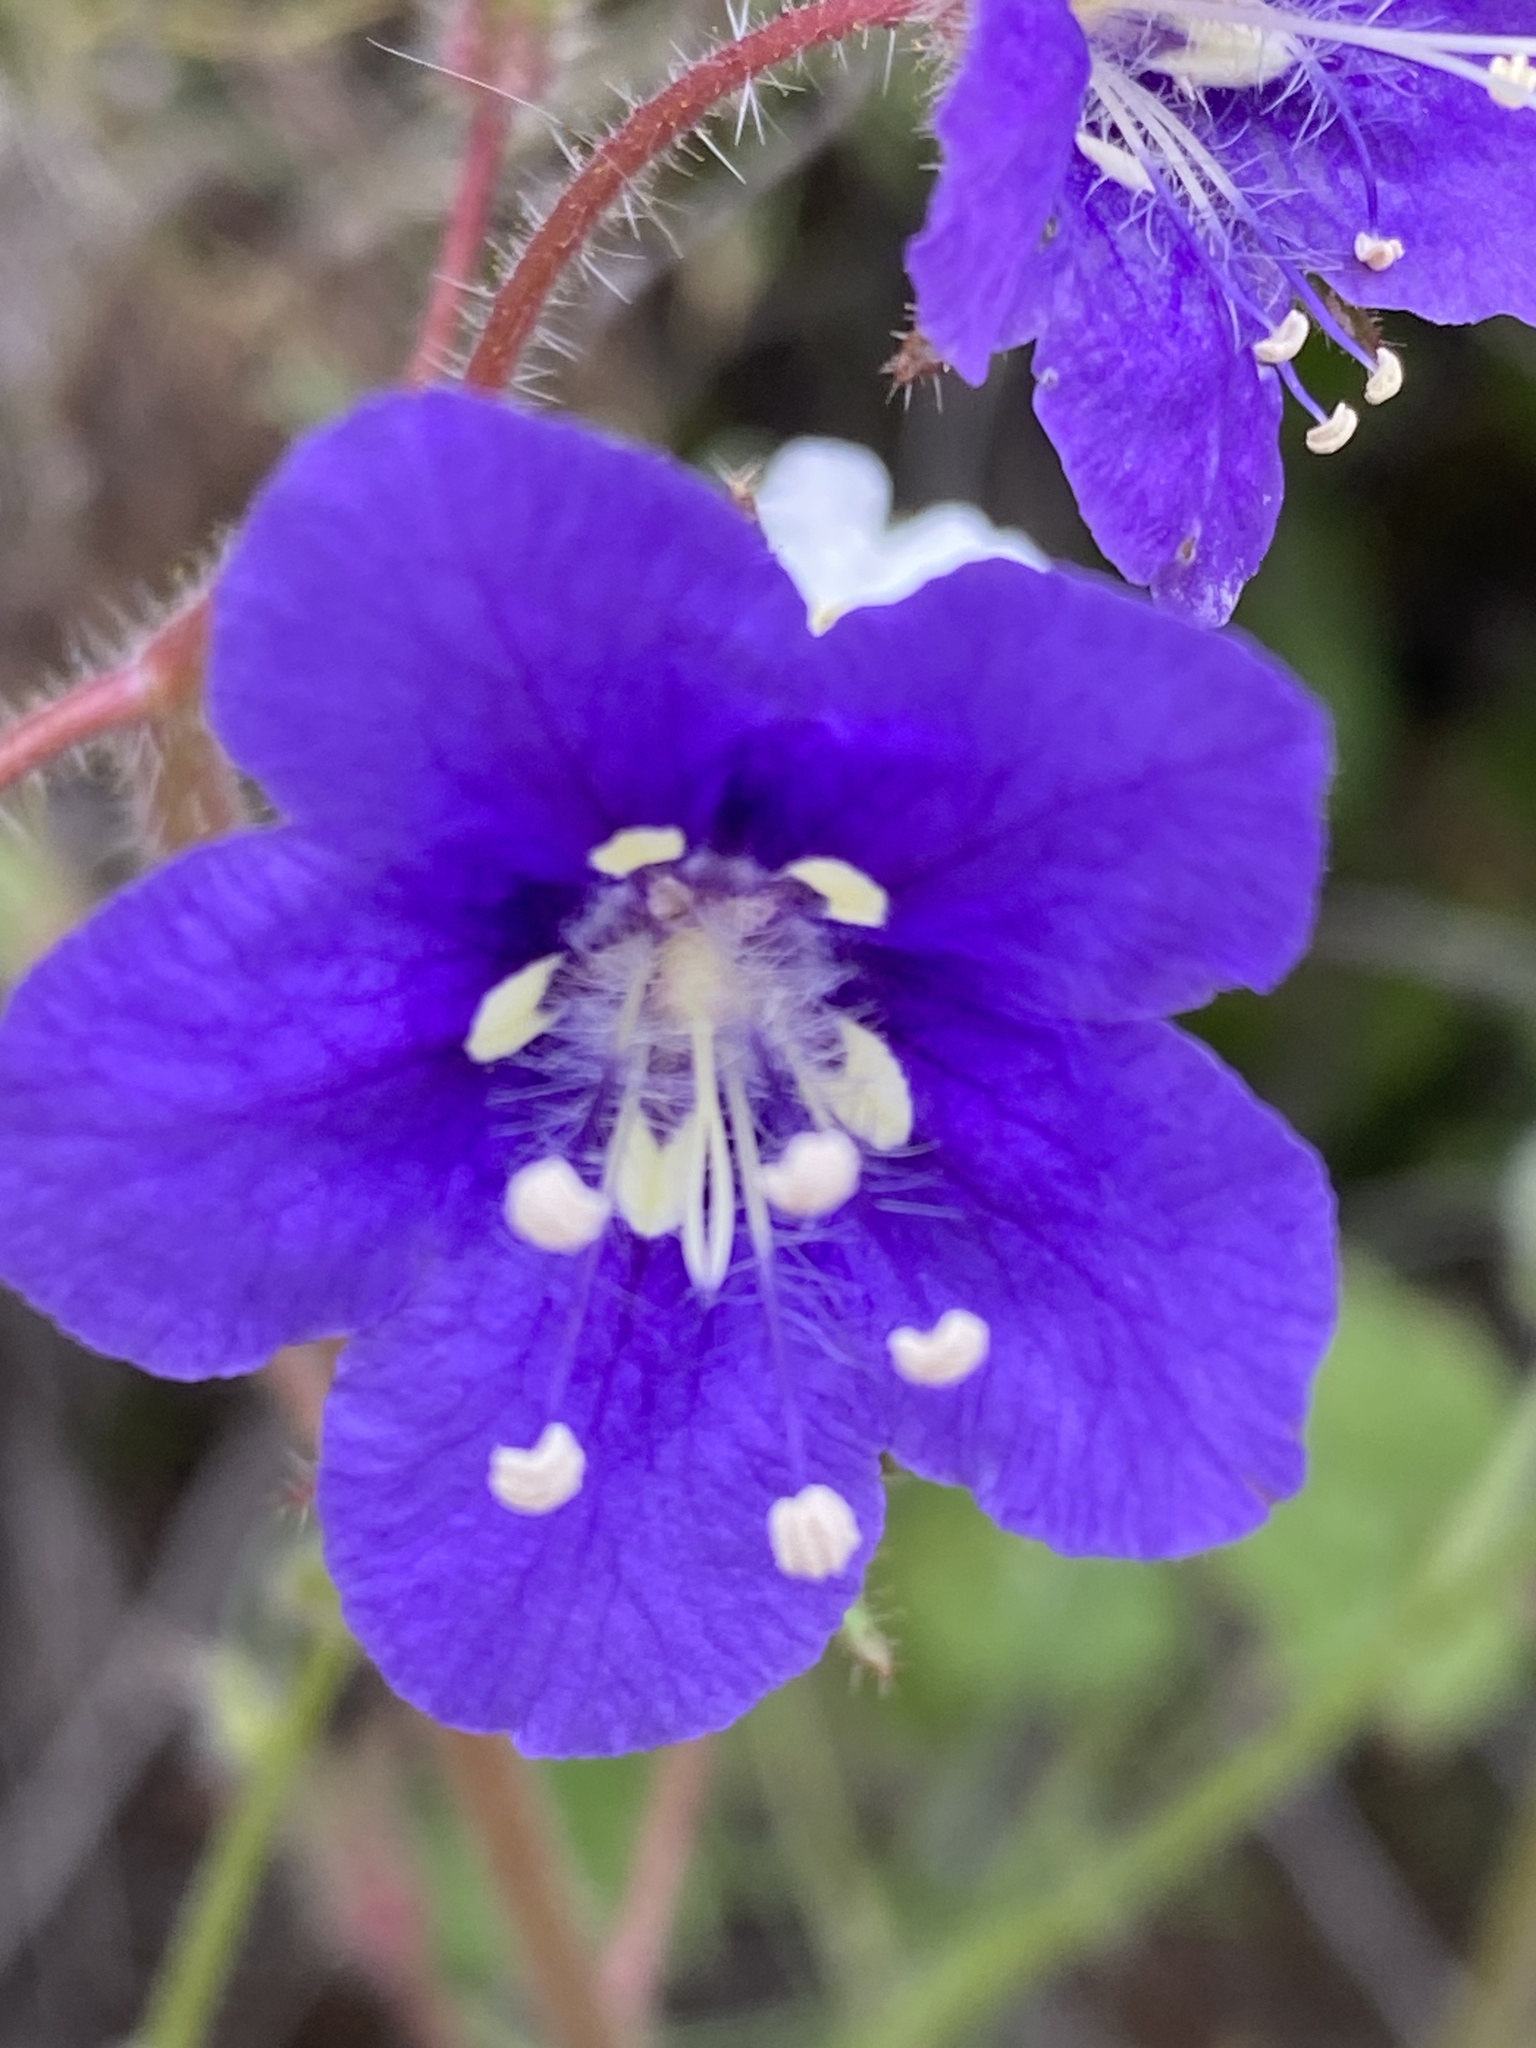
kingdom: Plantae
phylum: Tracheophyta
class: Magnoliopsida
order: Boraginales
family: Hydrophyllaceae
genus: Phacelia
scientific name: Phacelia parryi
